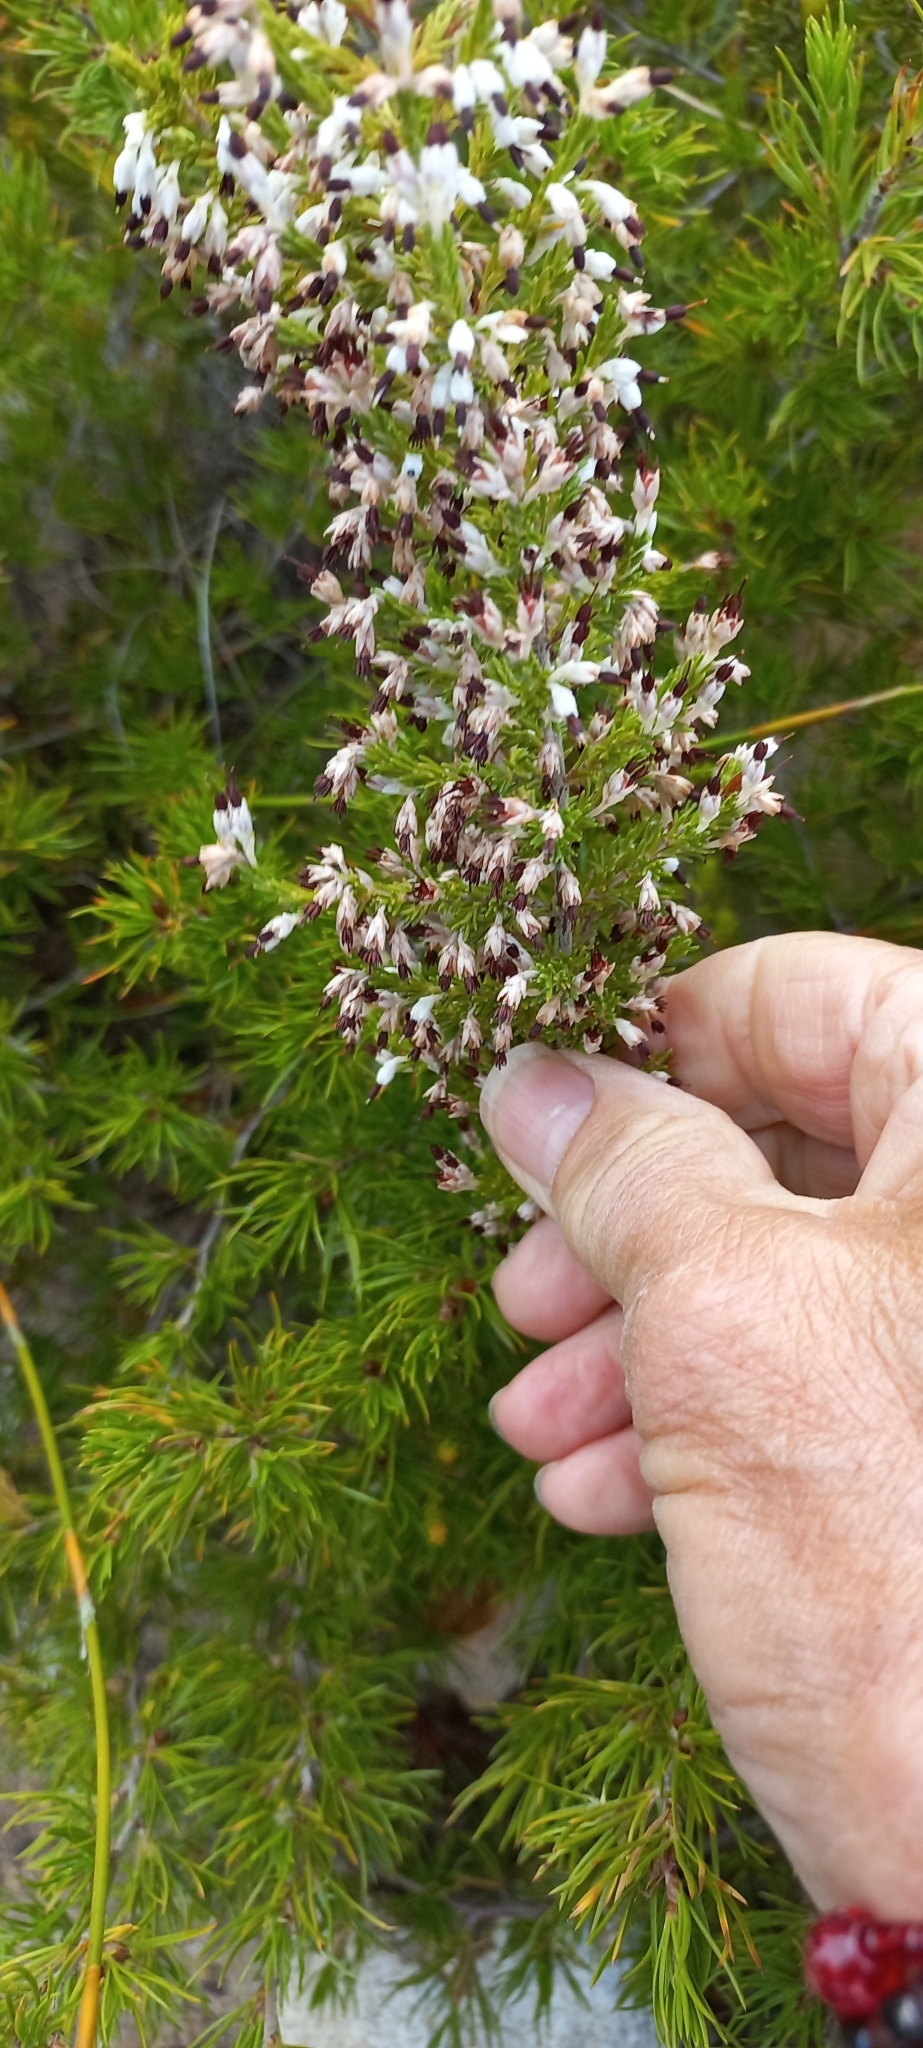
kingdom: Plantae
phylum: Tracheophyta
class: Magnoliopsida
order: Ericales
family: Ericaceae
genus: Erica
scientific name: Erica imbricata
